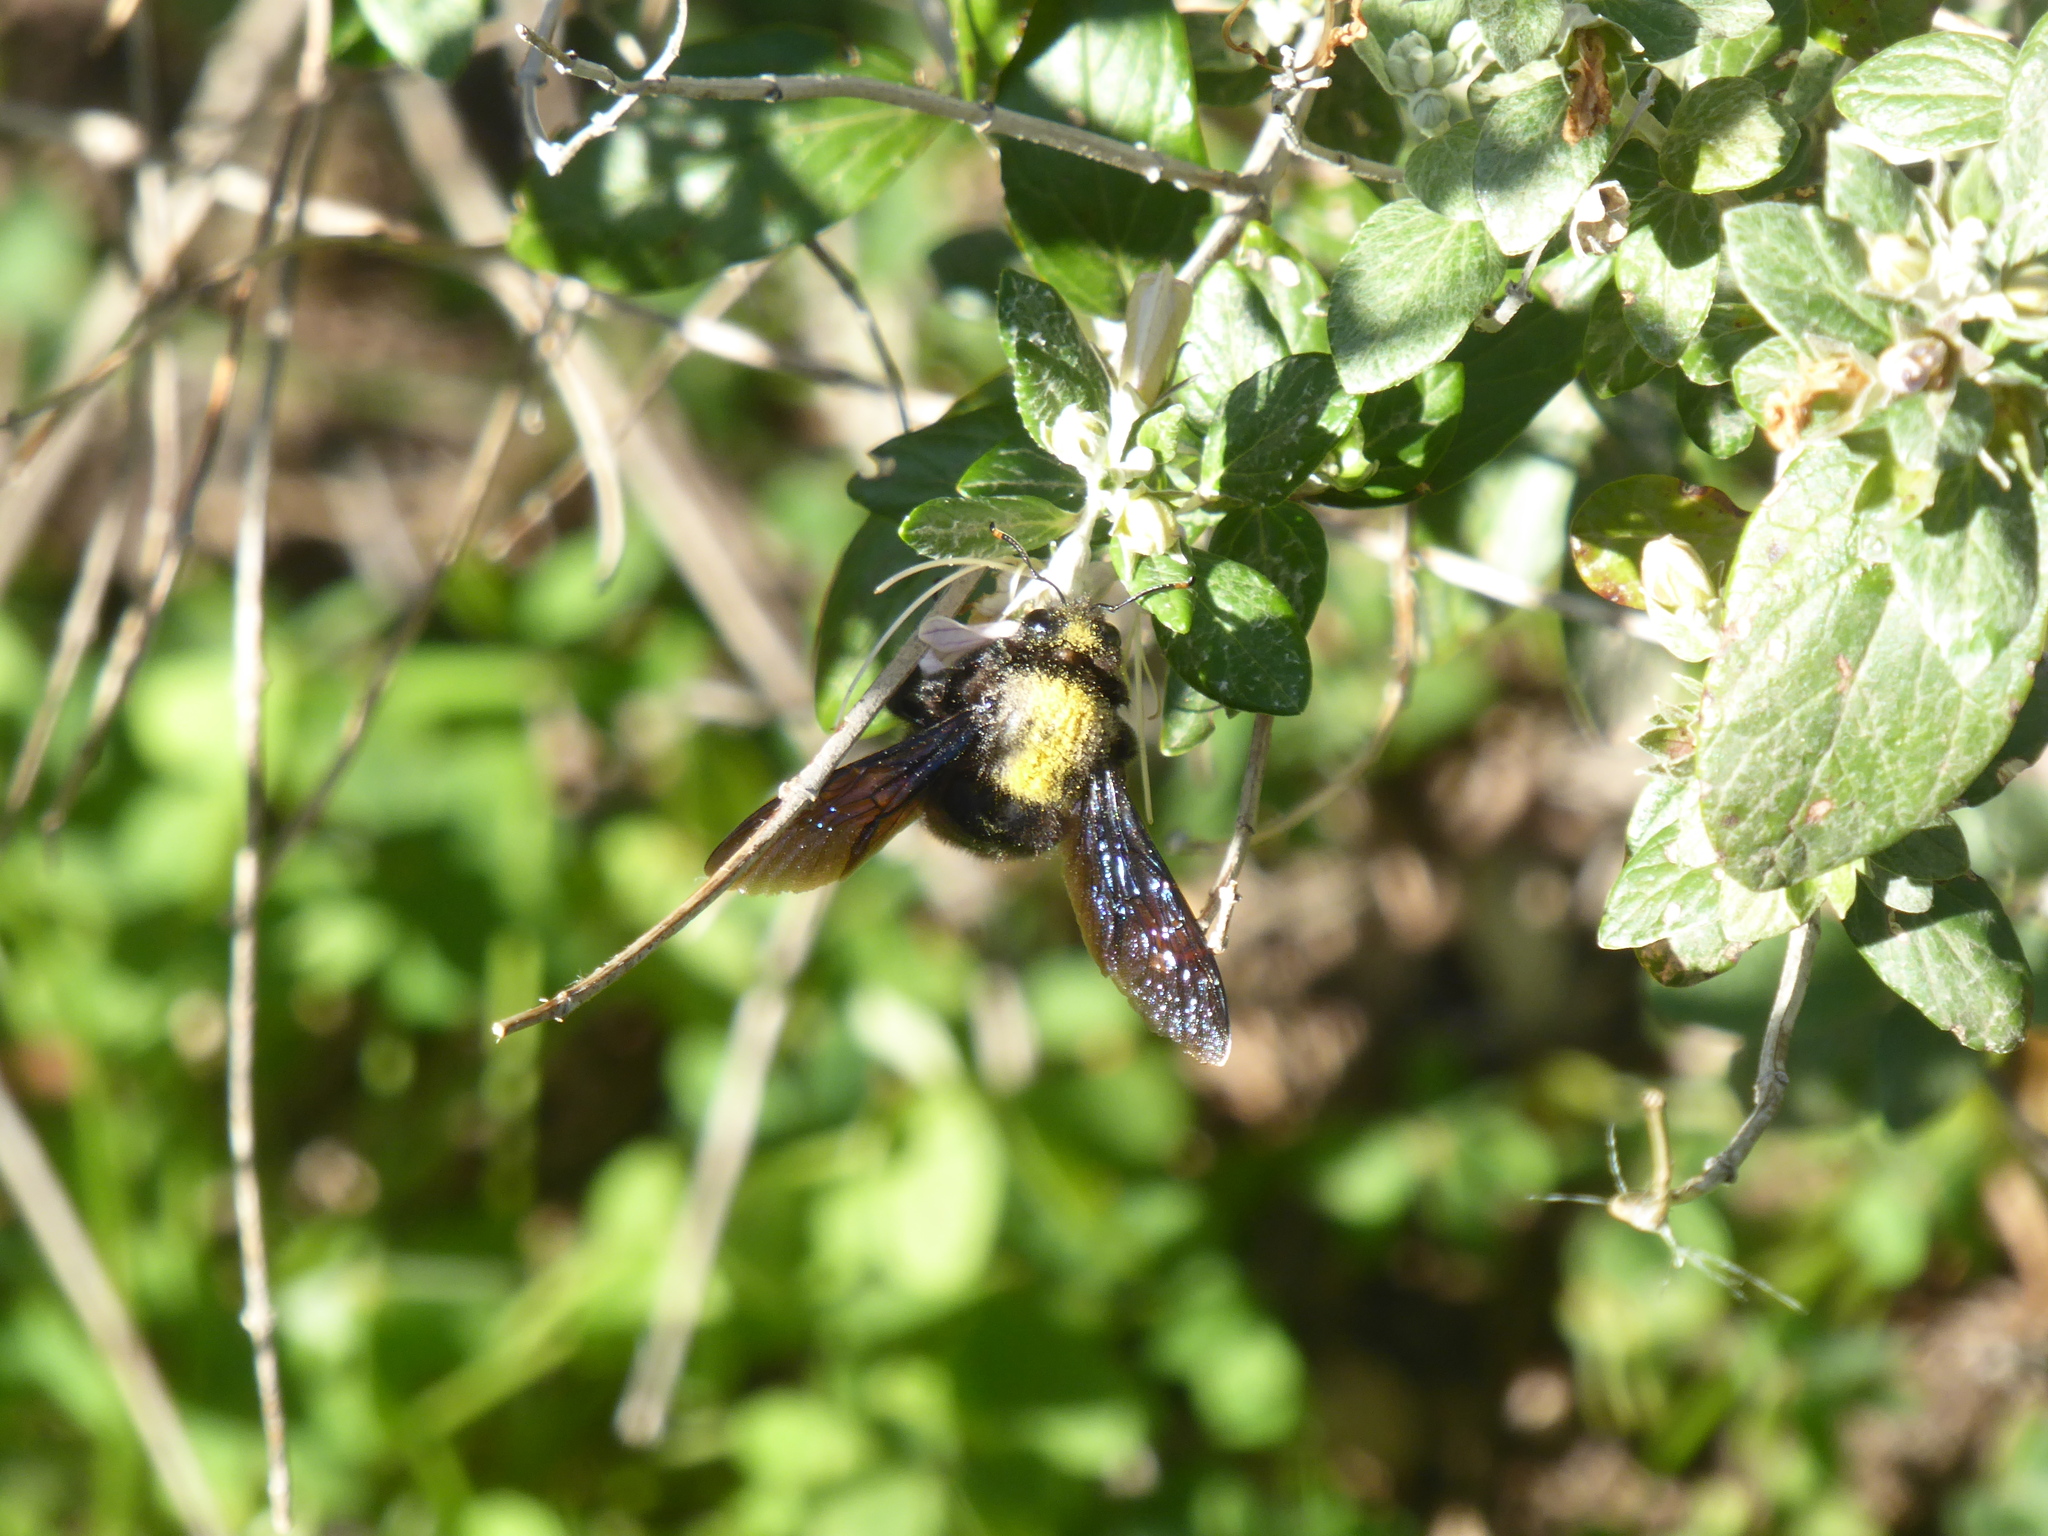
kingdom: Animalia
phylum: Arthropoda
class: Insecta
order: Hymenoptera
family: Apidae
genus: Xylocopa
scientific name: Xylocopa violacea
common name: Violet carpenter bee
